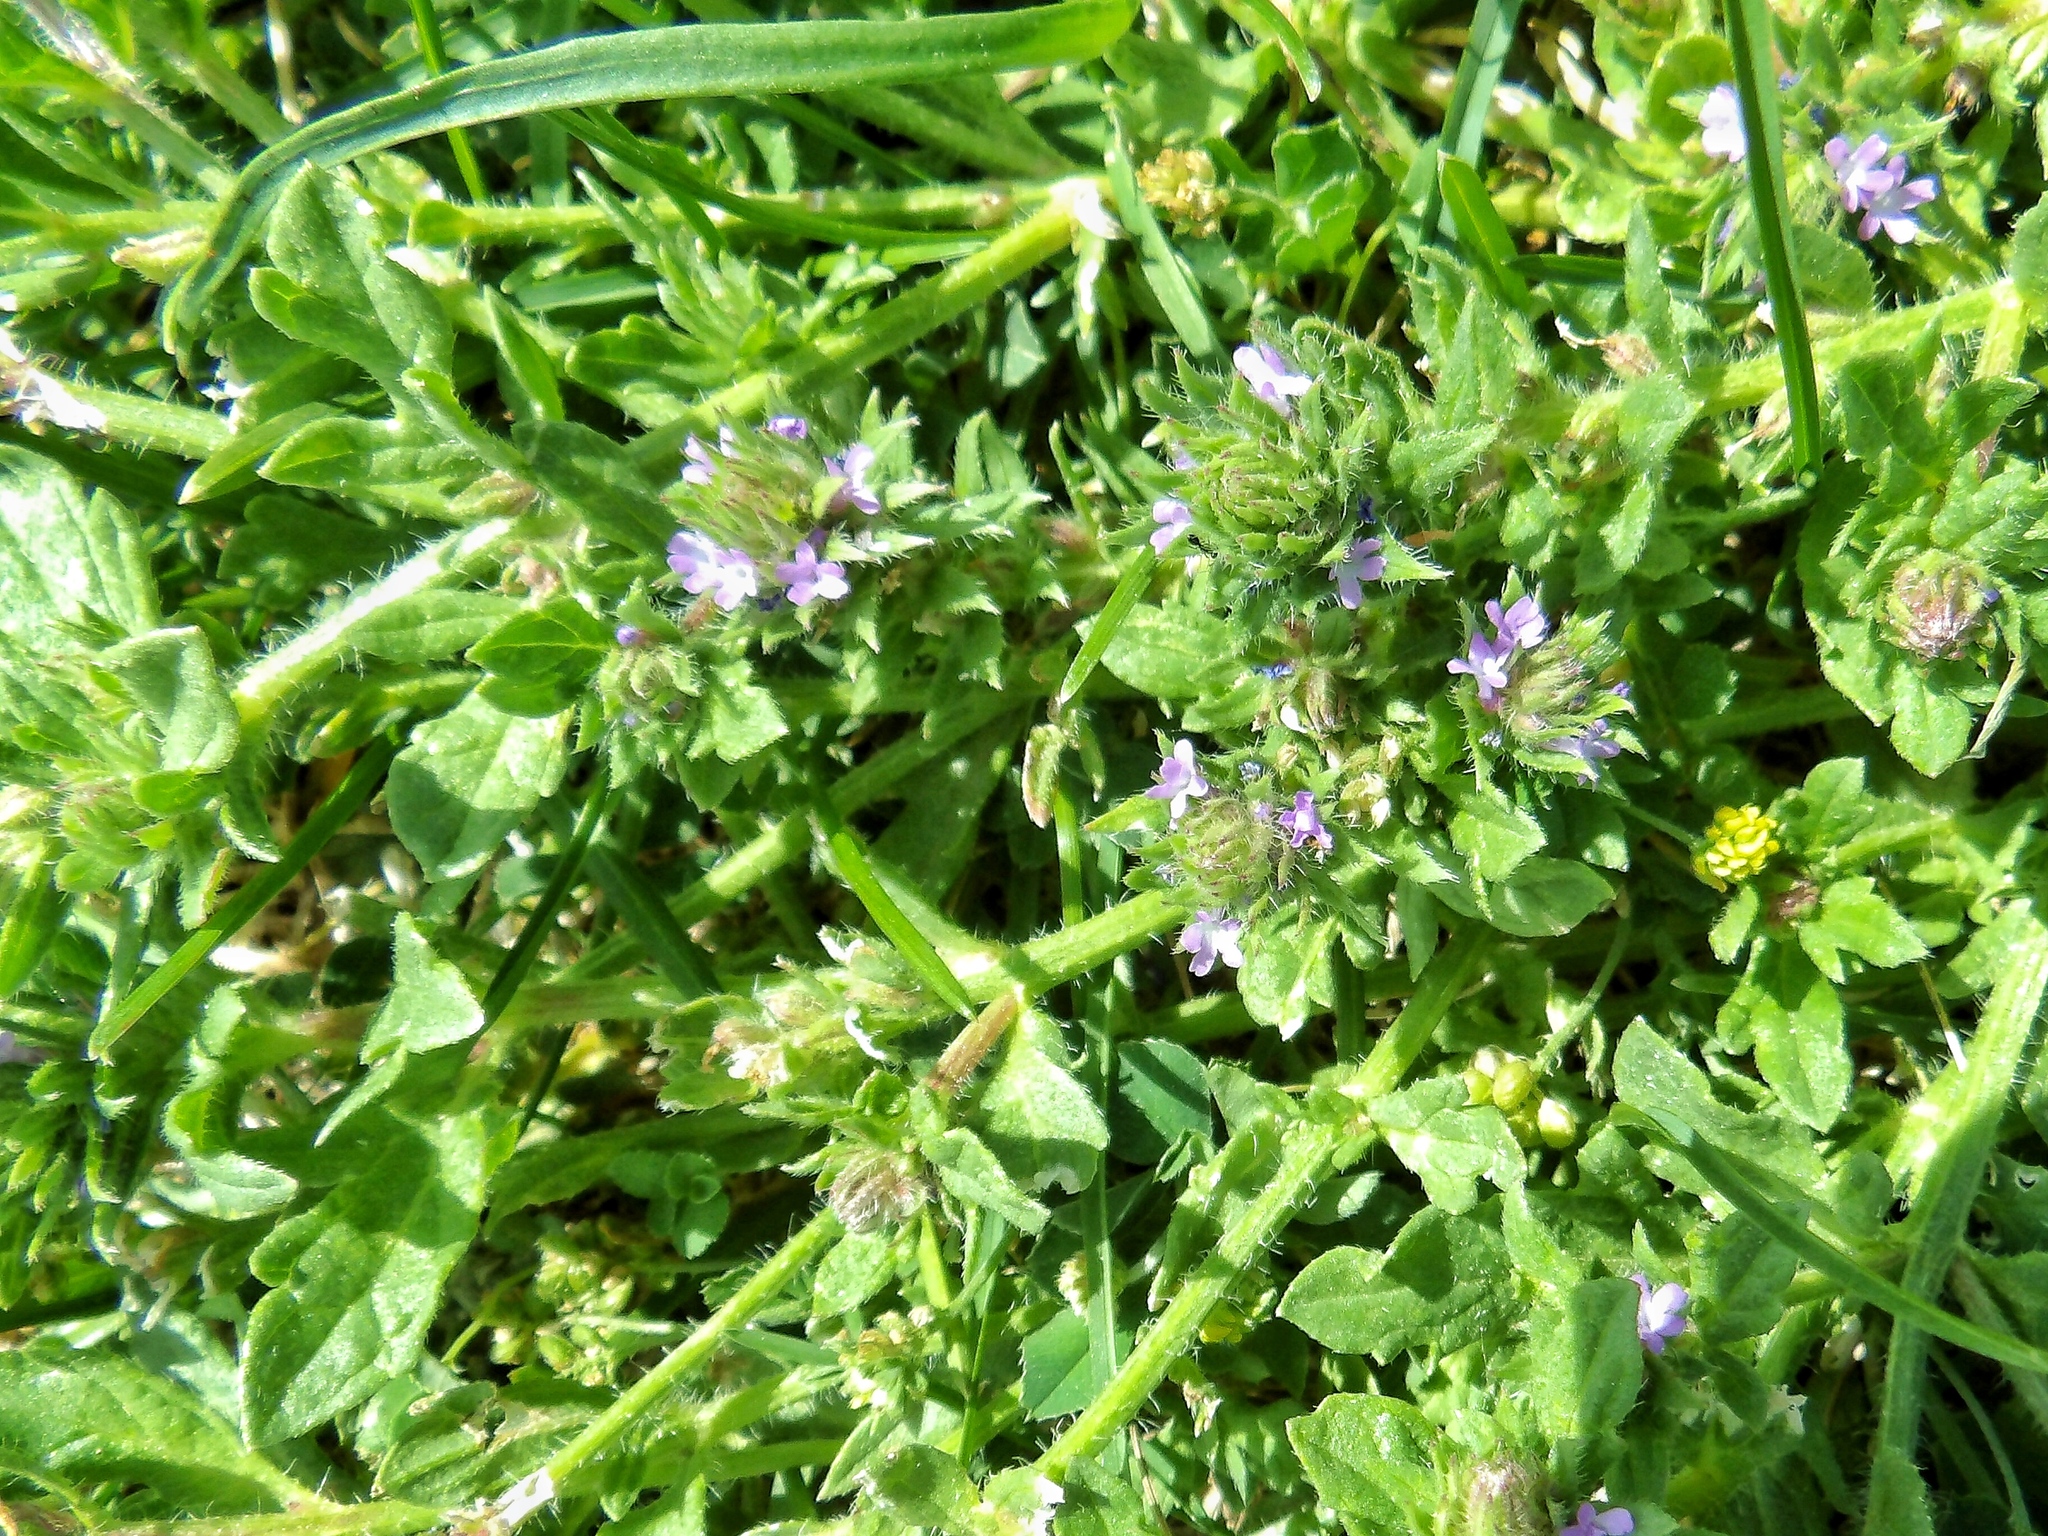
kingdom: Plantae
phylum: Tracheophyta
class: Magnoliopsida
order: Lamiales
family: Verbenaceae
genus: Verbena
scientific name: Verbena bracteata
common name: Bracted vervain
